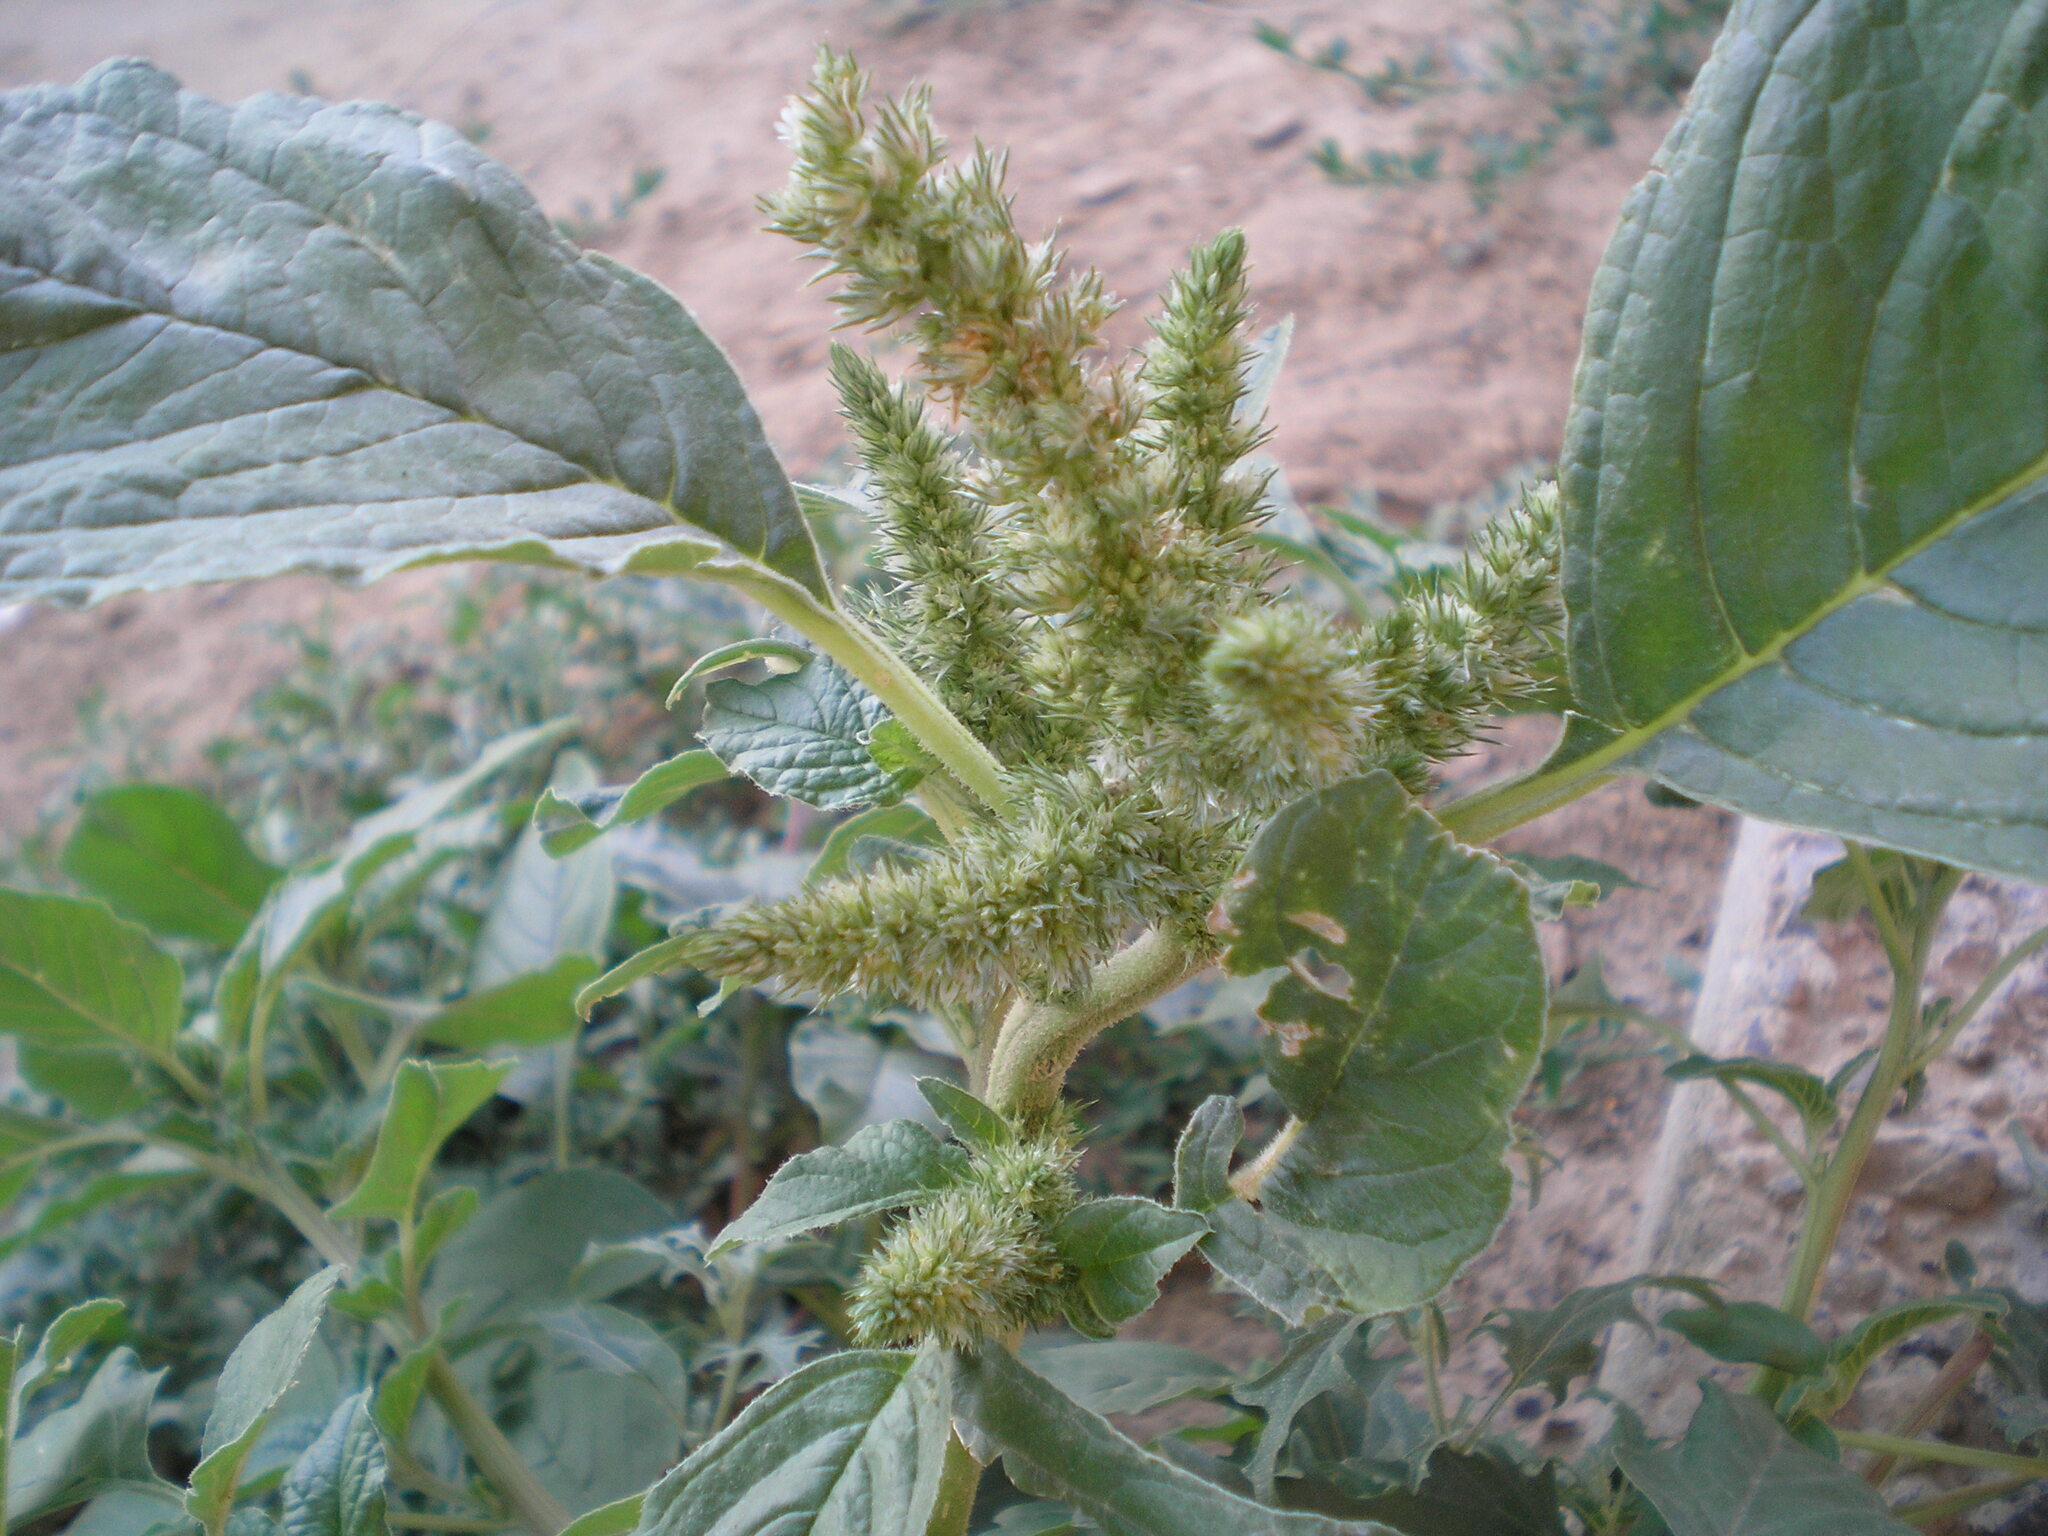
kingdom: Plantae
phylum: Tracheophyta
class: Magnoliopsida
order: Caryophyllales
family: Amaranthaceae
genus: Amaranthus
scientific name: Amaranthus retroflexus
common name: Redroot amaranth
